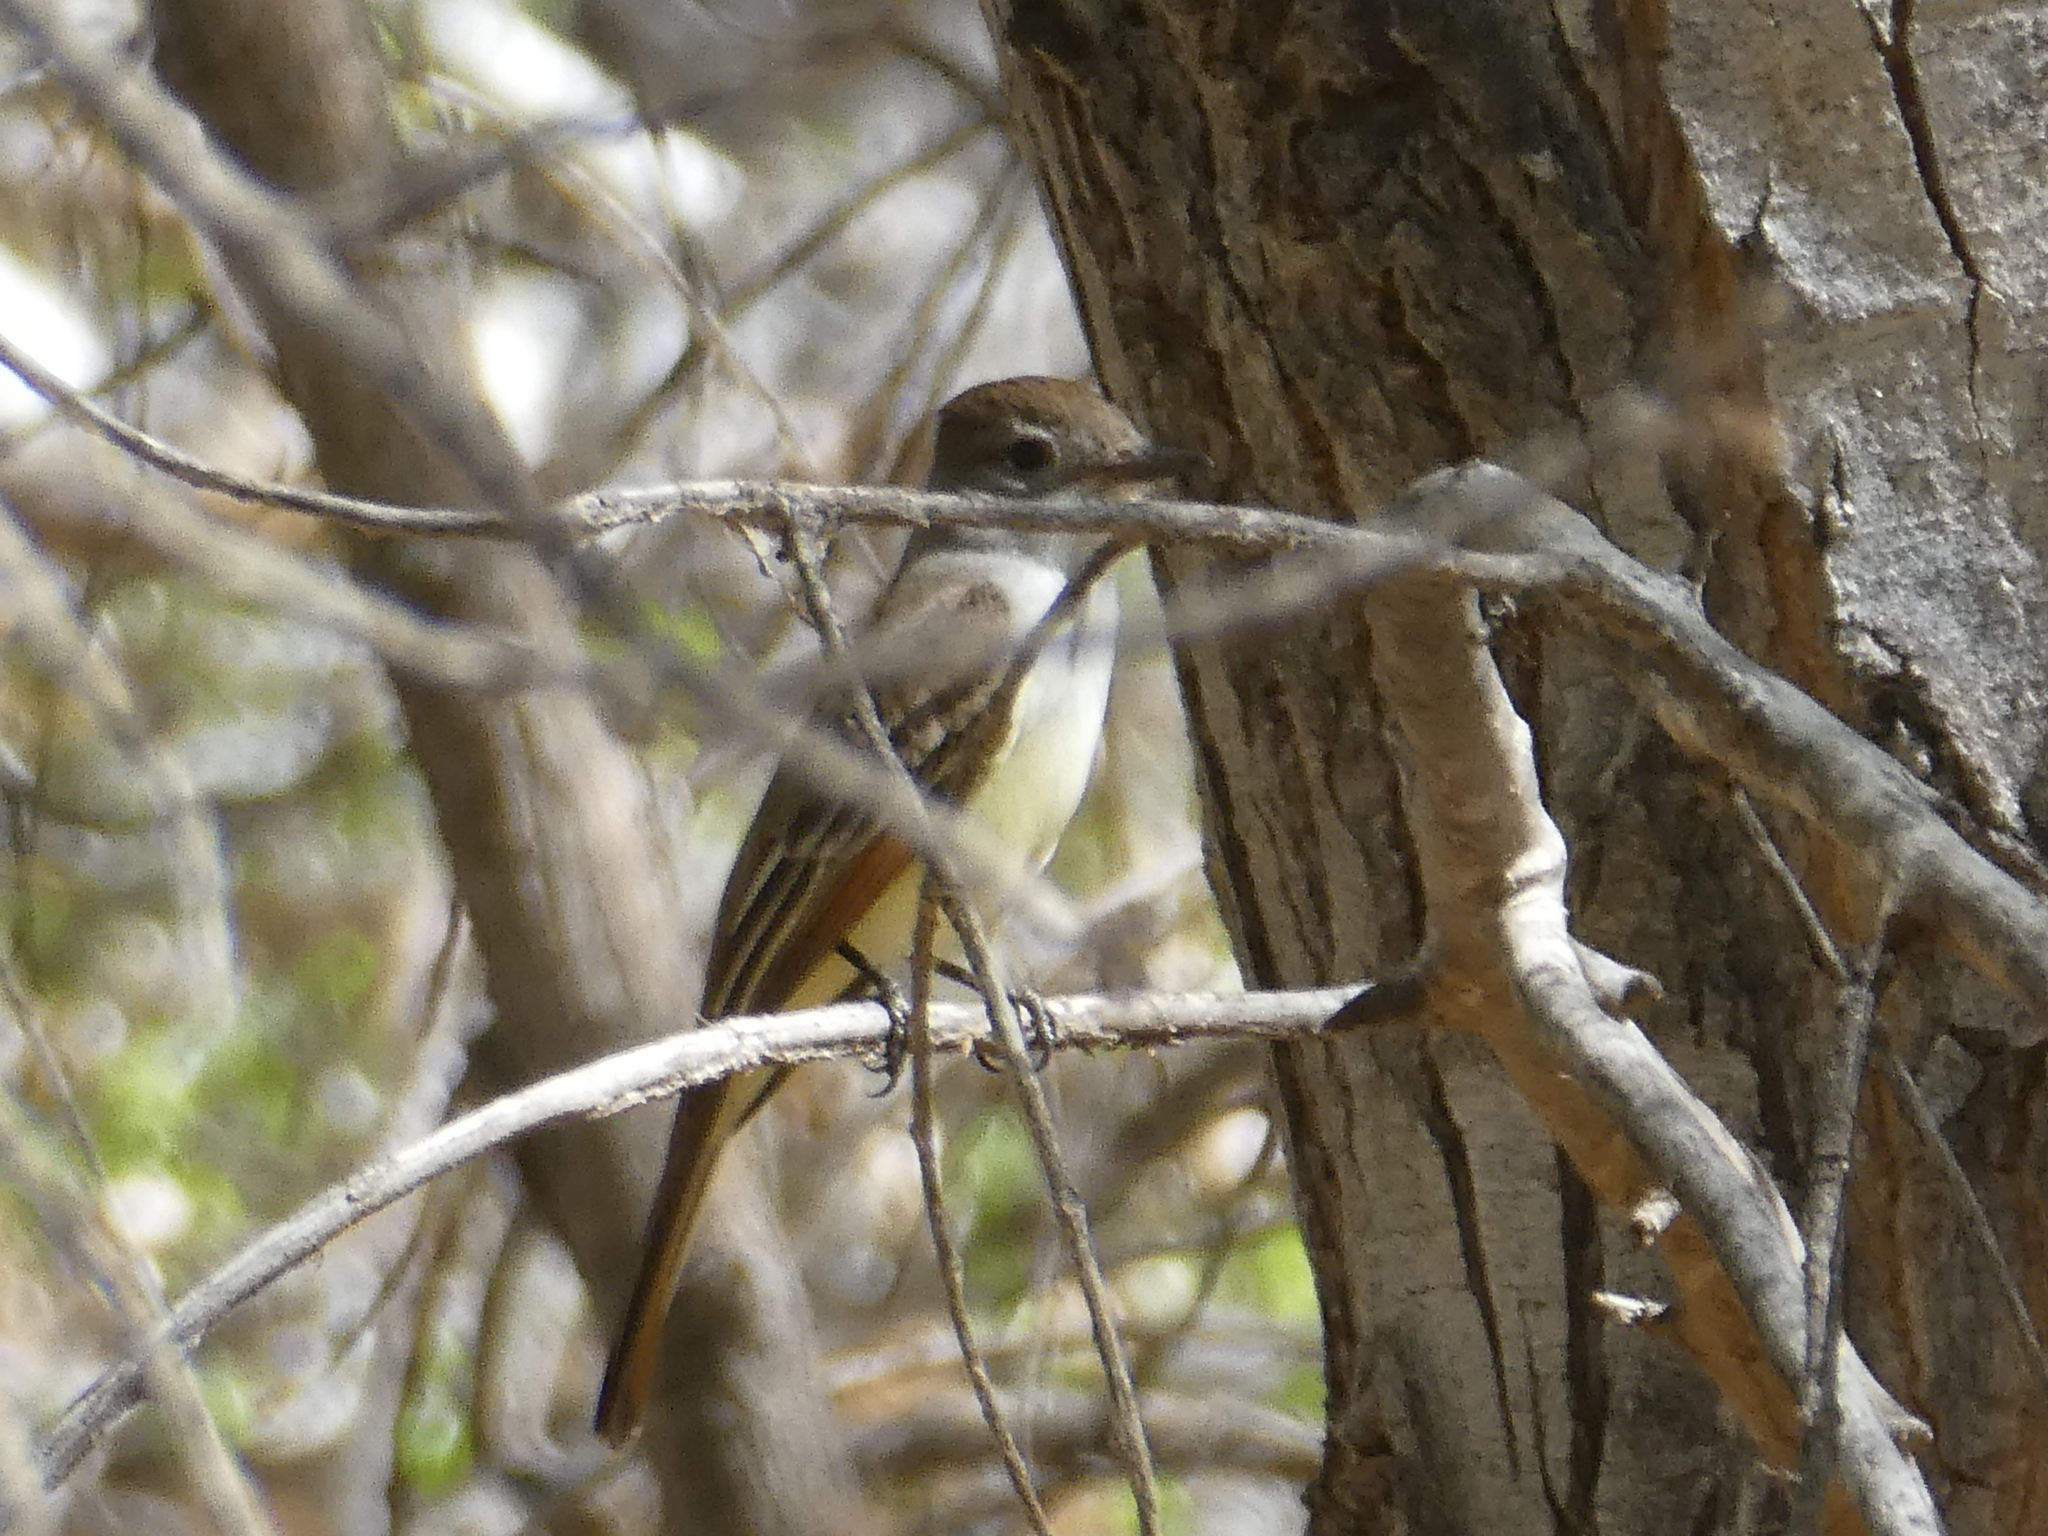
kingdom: Animalia
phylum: Chordata
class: Aves
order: Passeriformes
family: Tyrannidae
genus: Myiarchus
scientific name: Myiarchus cinerascens
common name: Ash-throated flycatcher
